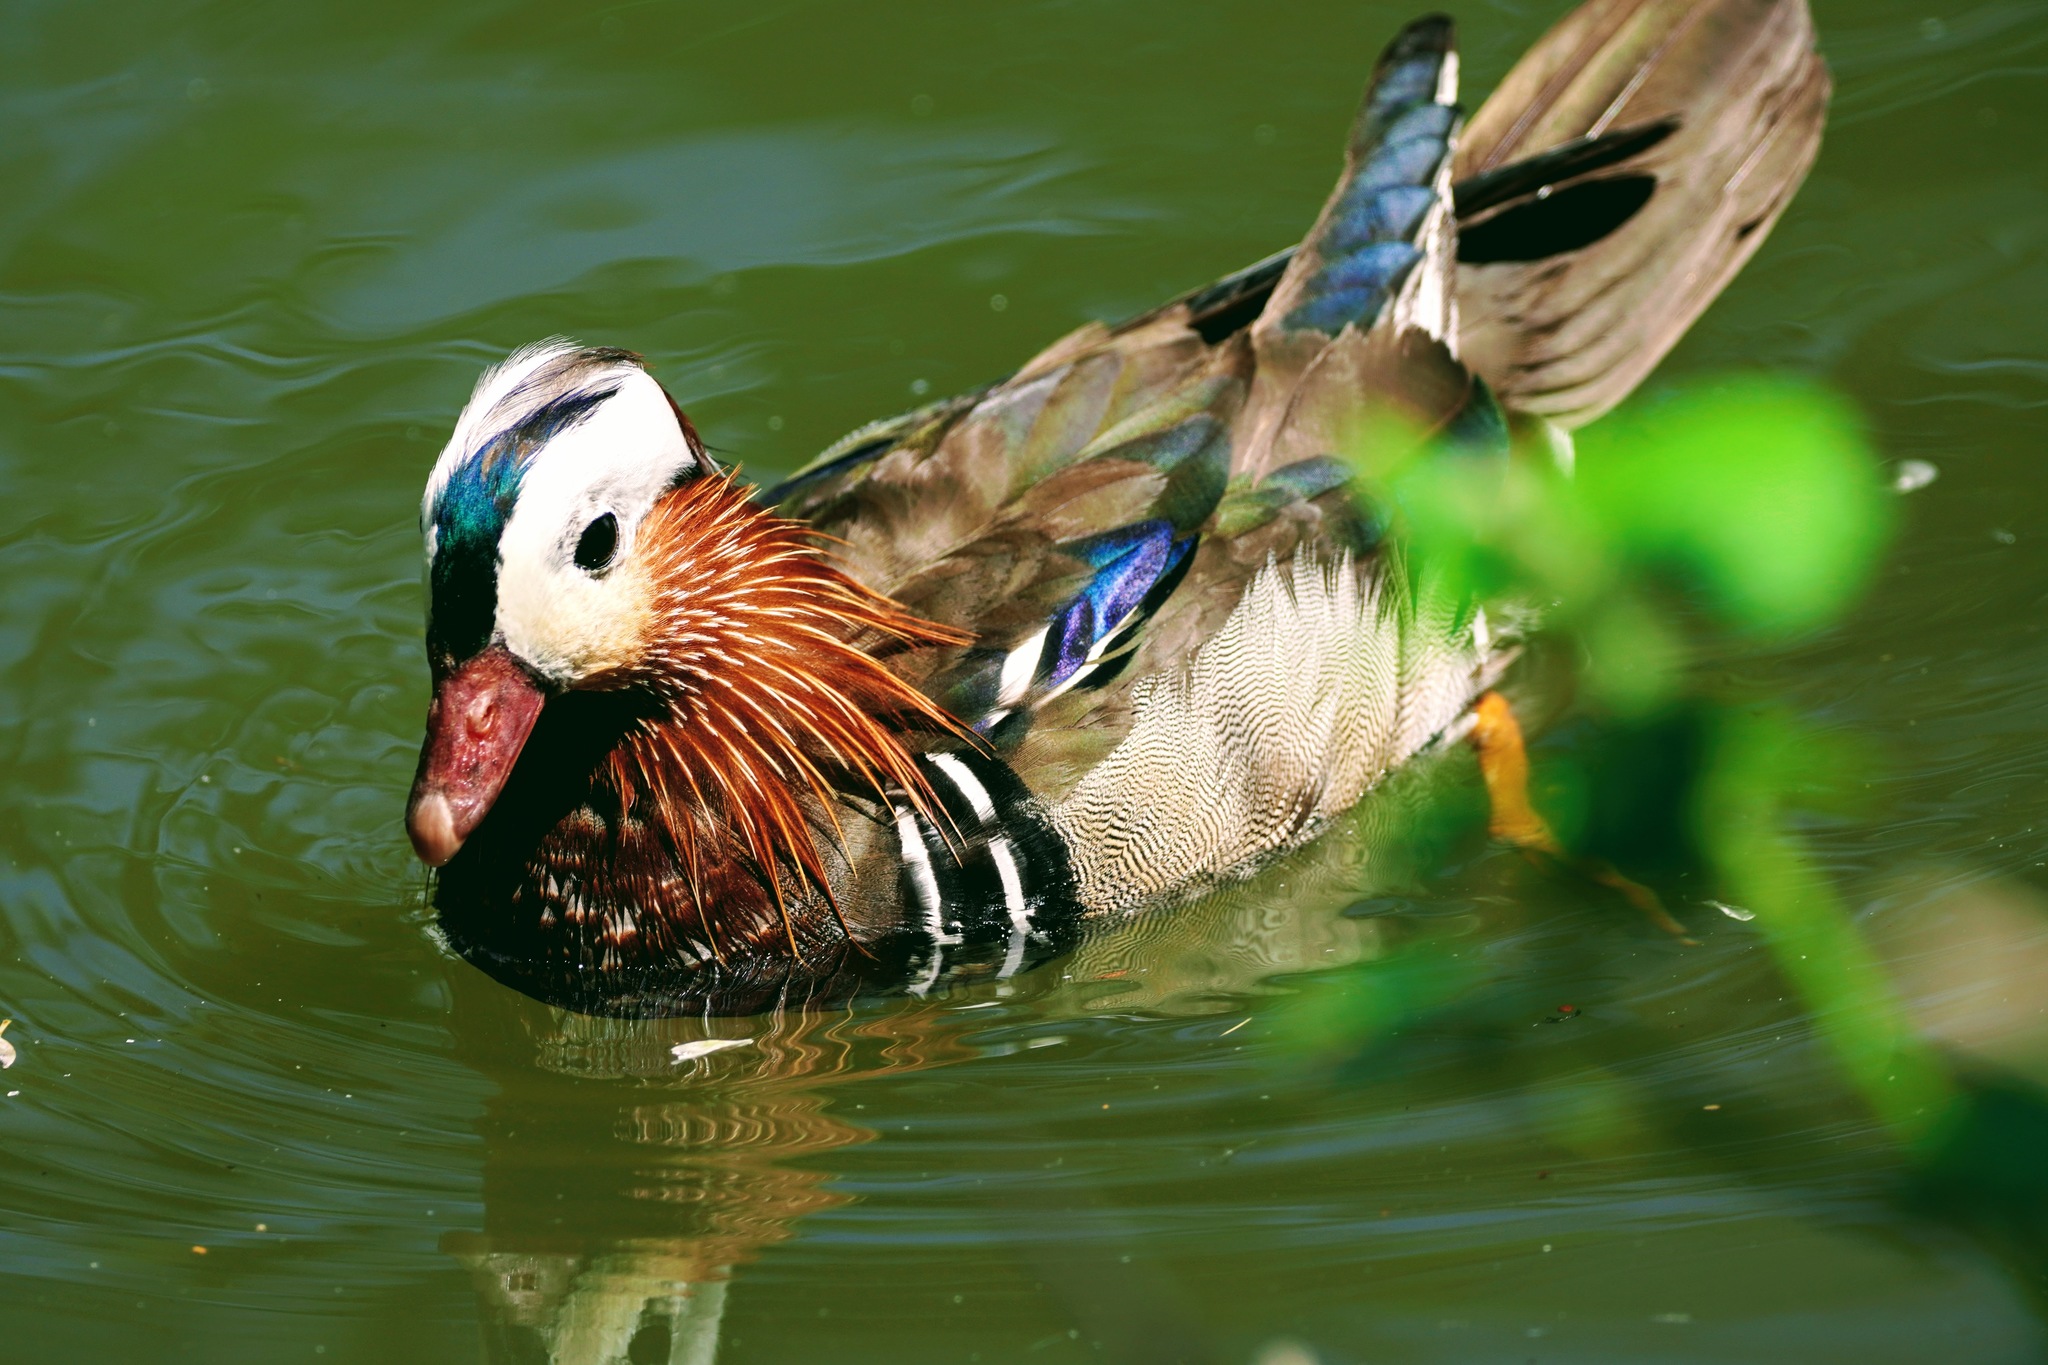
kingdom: Animalia
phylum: Chordata
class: Aves
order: Anseriformes
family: Anatidae
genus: Aix
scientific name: Aix galericulata
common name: Mandarin duck
